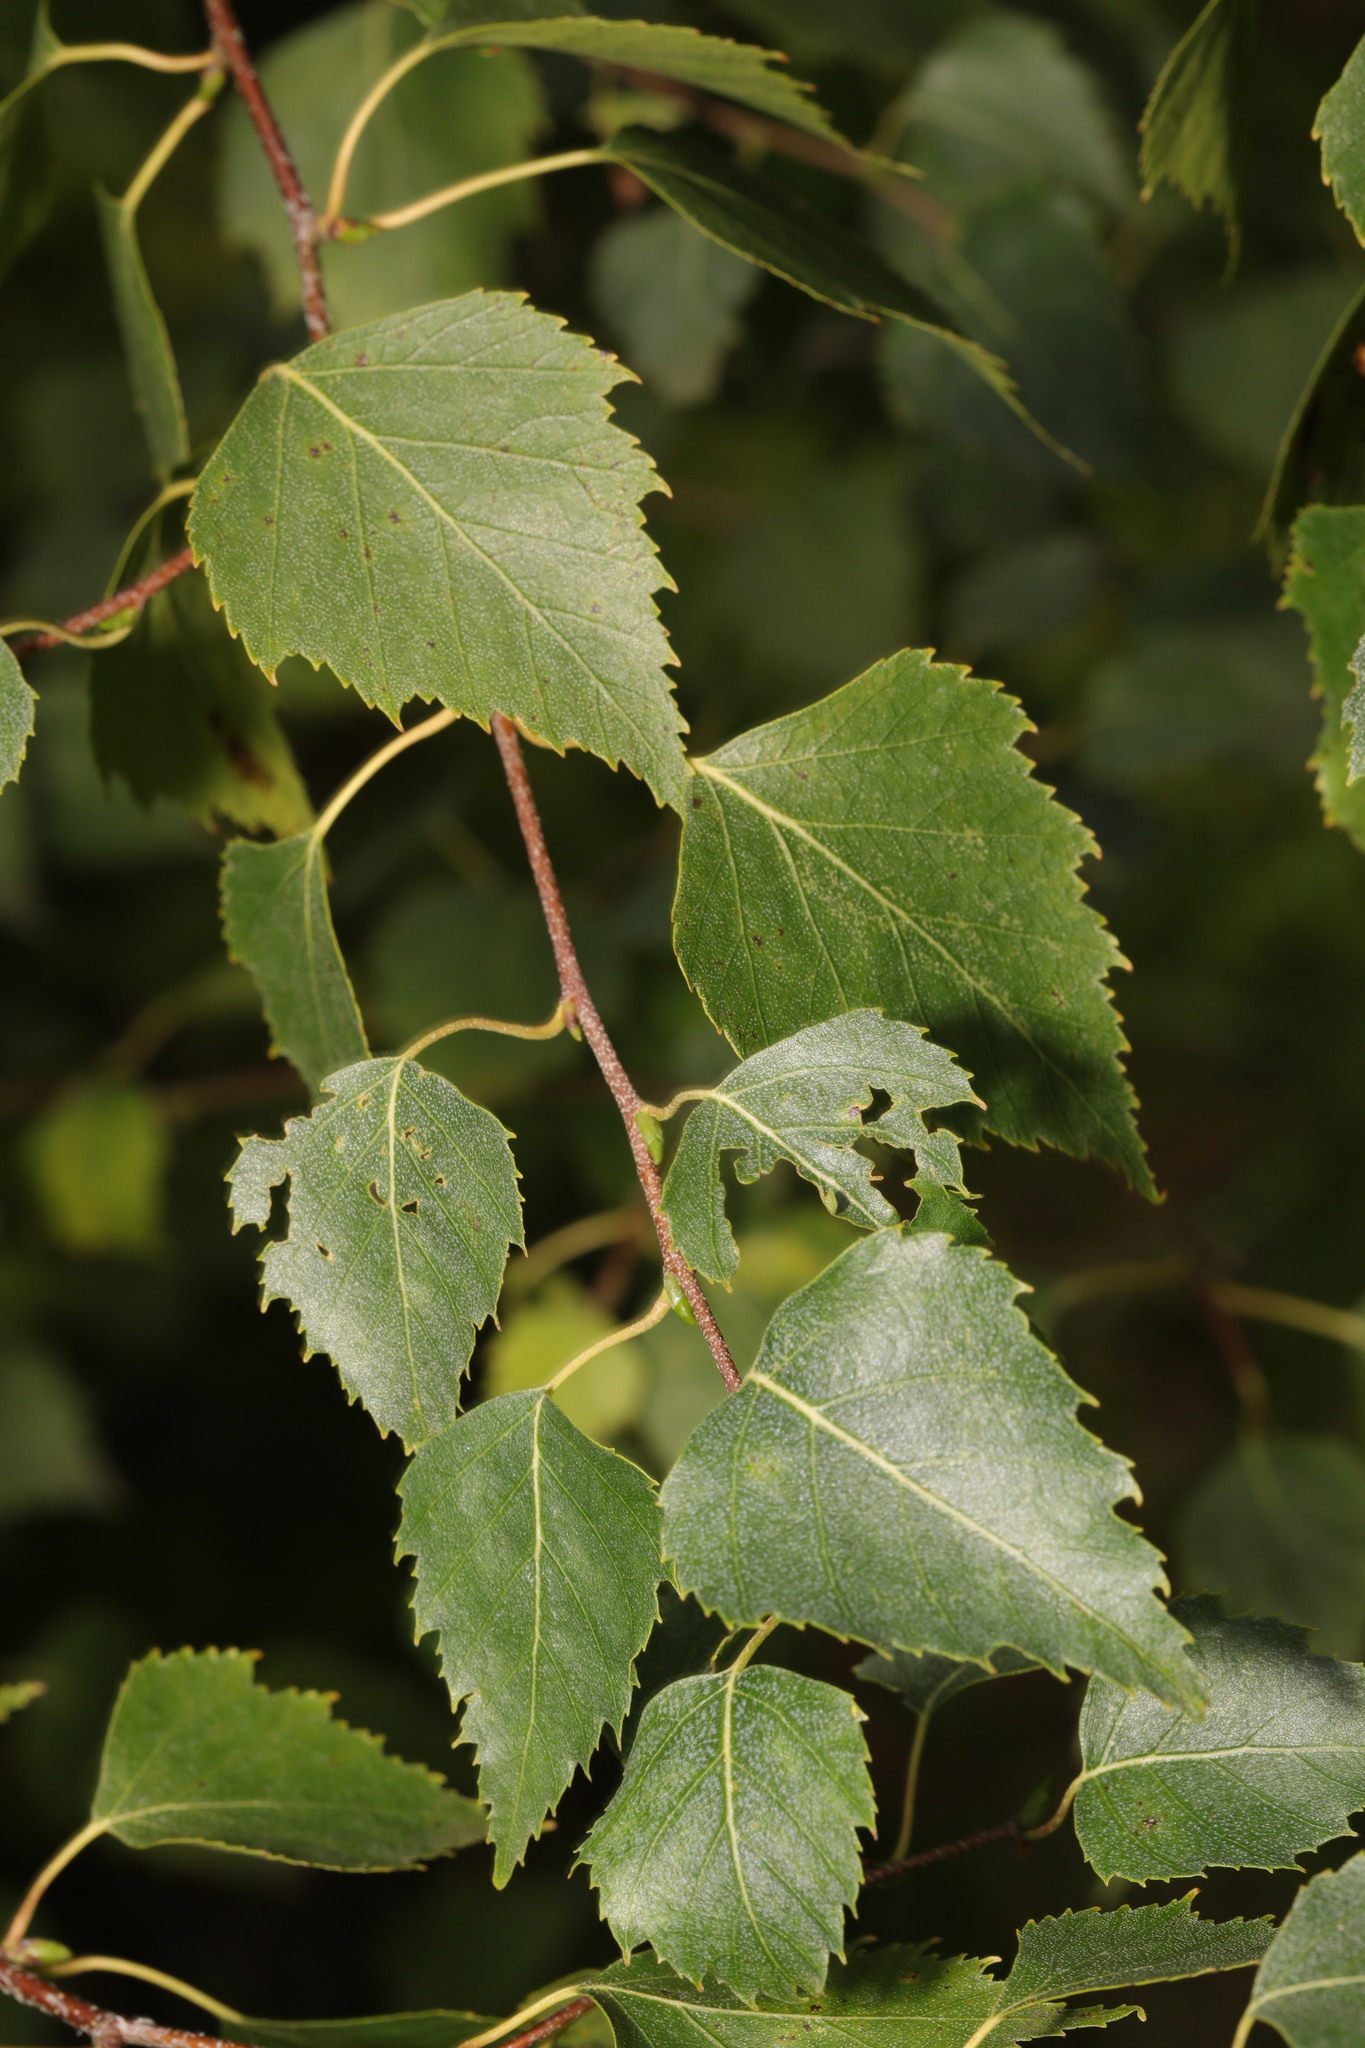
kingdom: Plantae
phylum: Tracheophyta
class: Magnoliopsida
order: Fagales
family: Betulaceae
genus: Betula
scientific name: Betula pendula
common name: Silver birch
